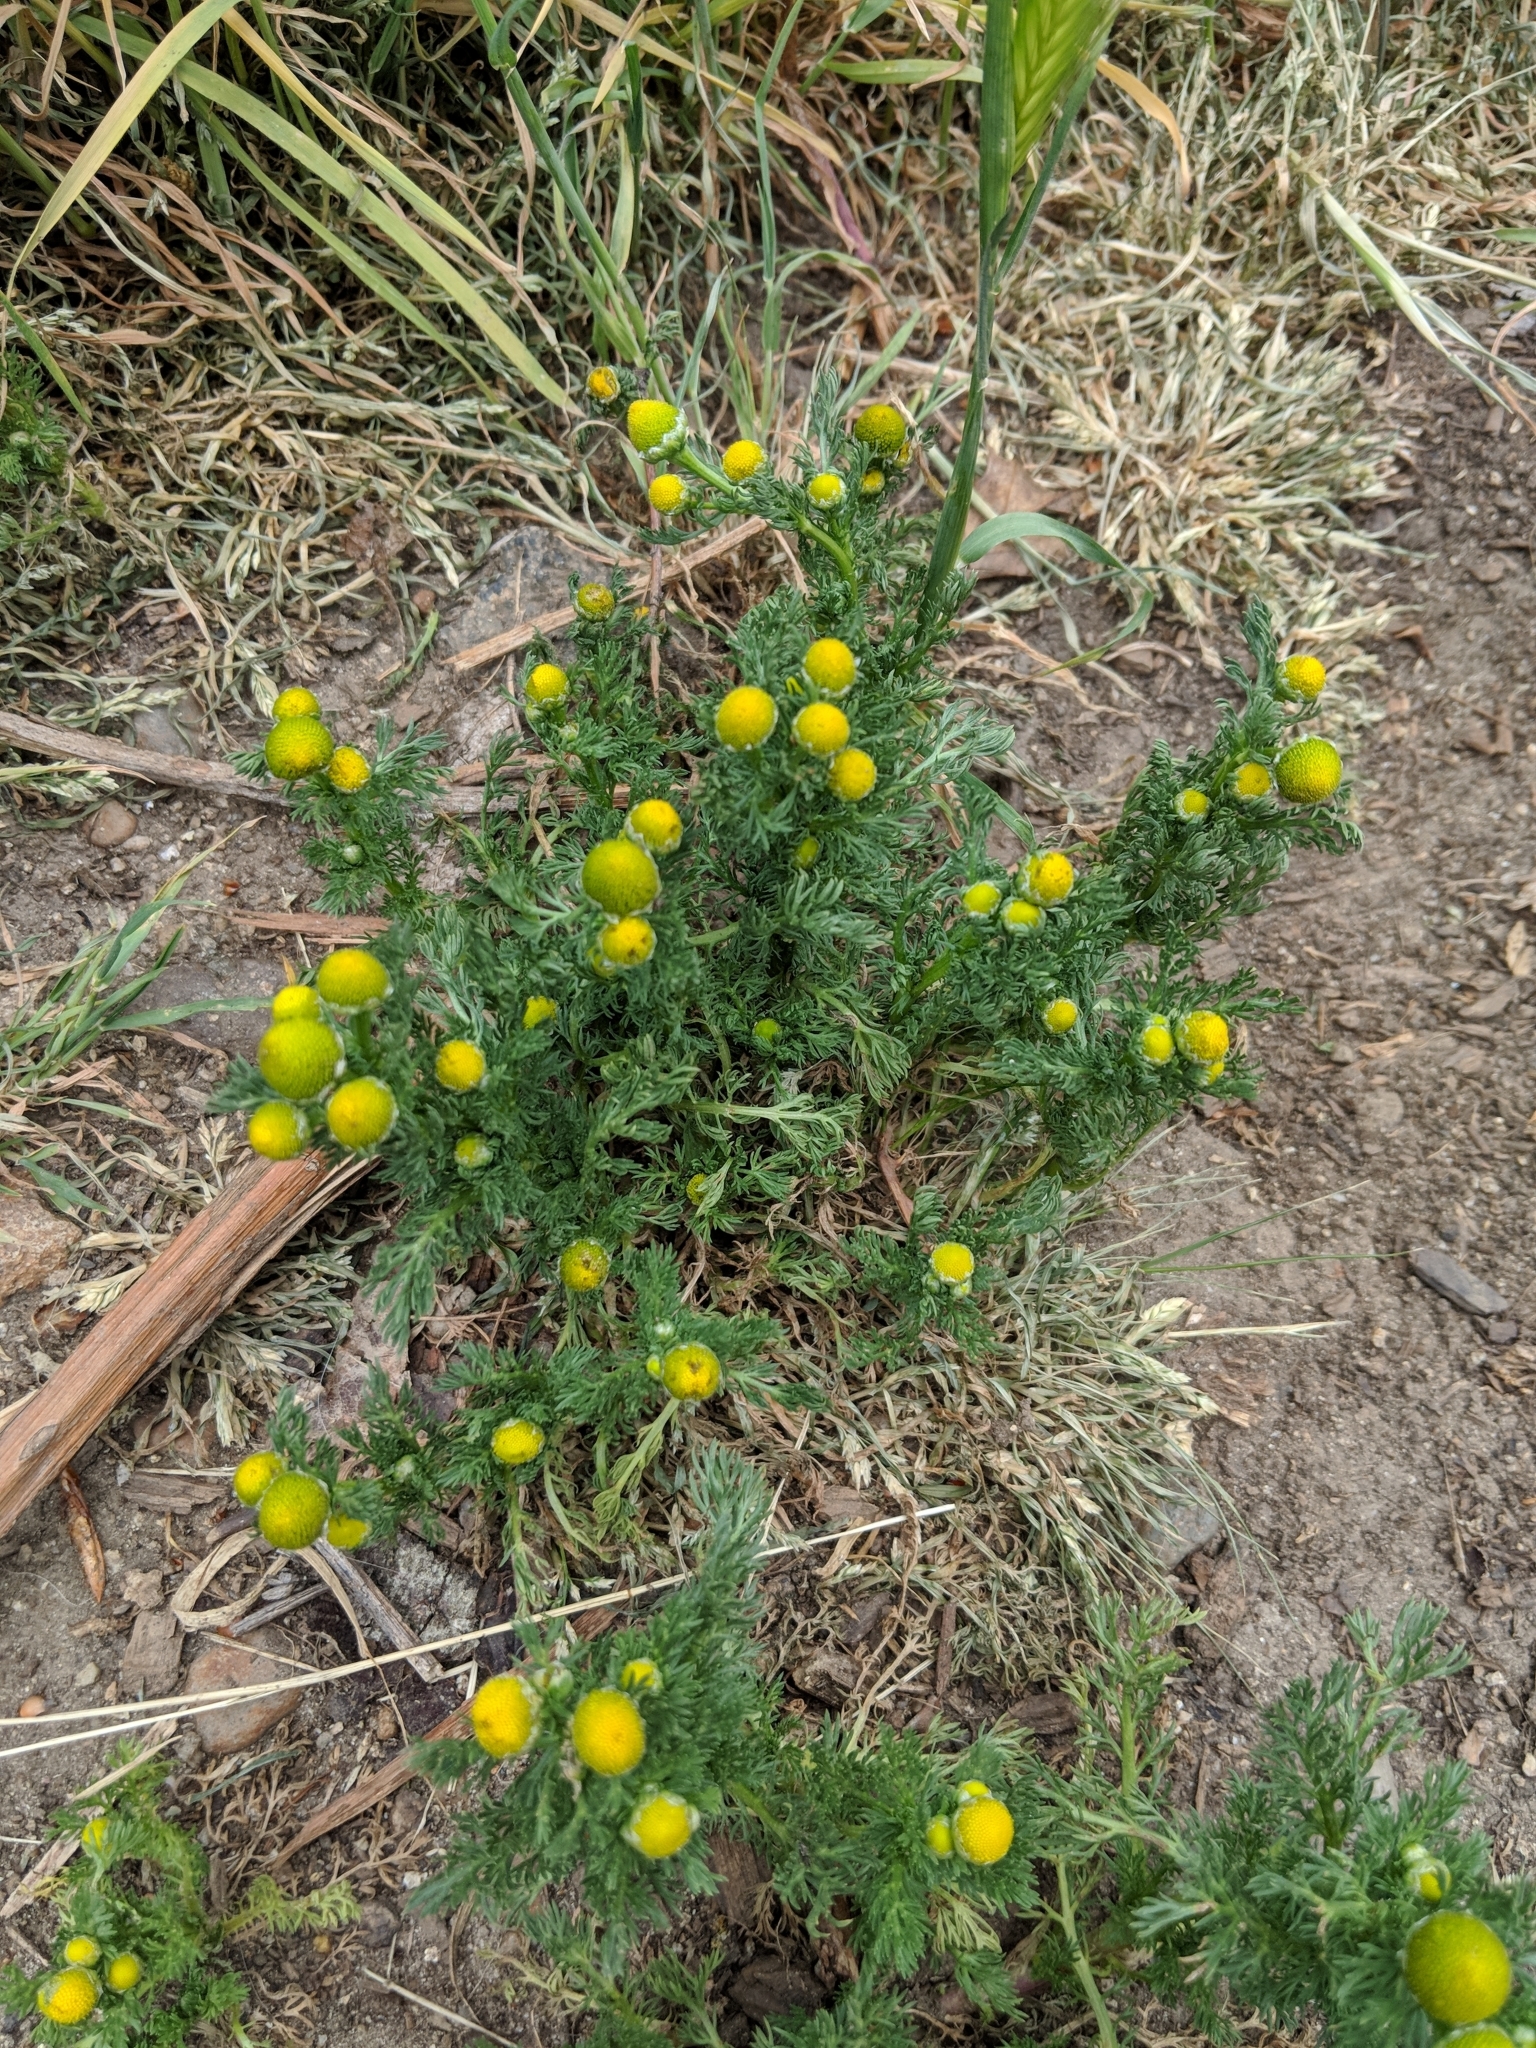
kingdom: Plantae
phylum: Tracheophyta
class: Magnoliopsida
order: Asterales
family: Asteraceae
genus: Matricaria
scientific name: Matricaria discoidea
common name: Disc mayweed
